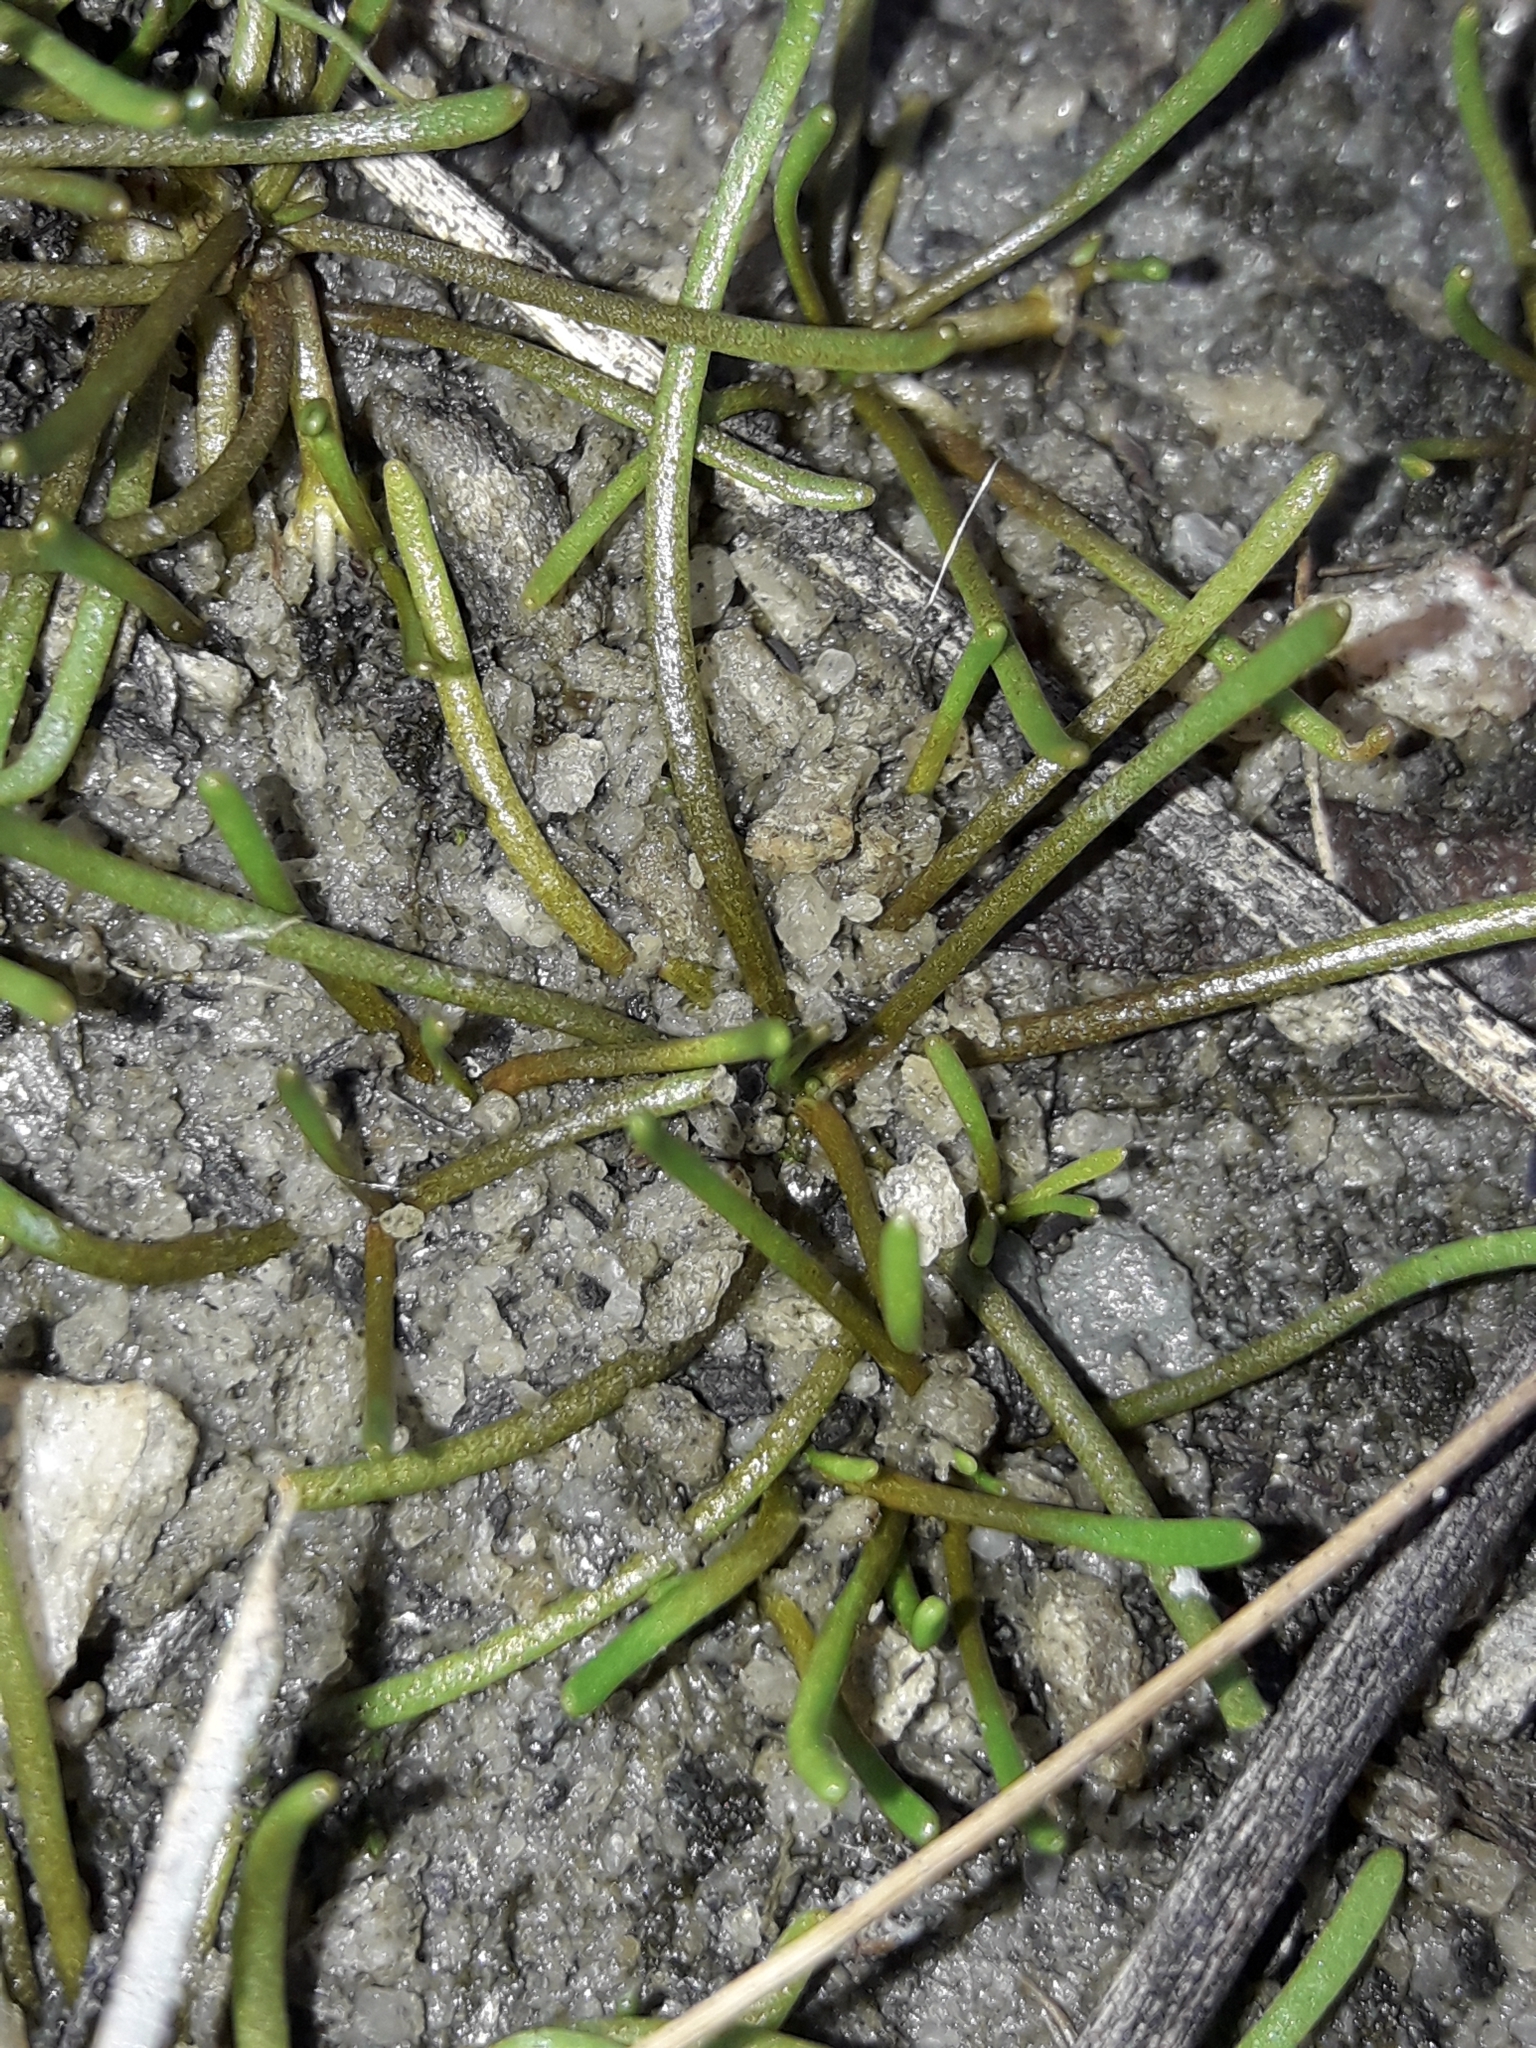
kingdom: Plantae
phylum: Tracheophyta
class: Magnoliopsida
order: Lamiales
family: Scrophulariaceae
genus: Limosella
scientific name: Limosella australis
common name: Welsh mudwort
